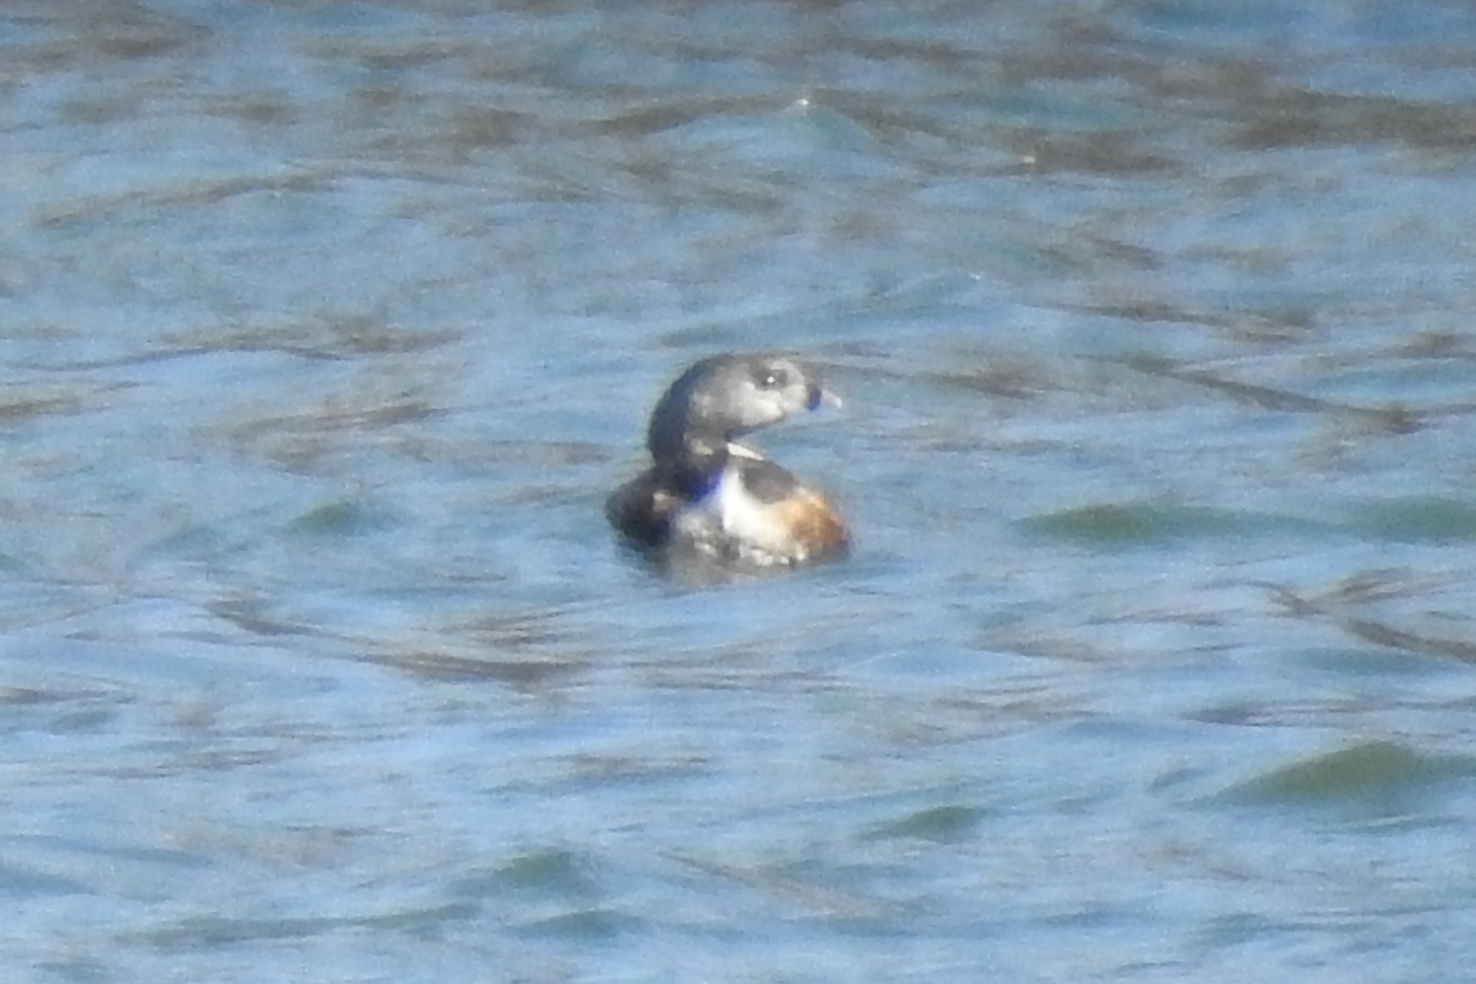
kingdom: Animalia
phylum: Chordata
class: Aves
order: Podicipediformes
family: Podicipedidae
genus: Podilymbus
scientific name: Podilymbus podiceps
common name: Pied-billed grebe
